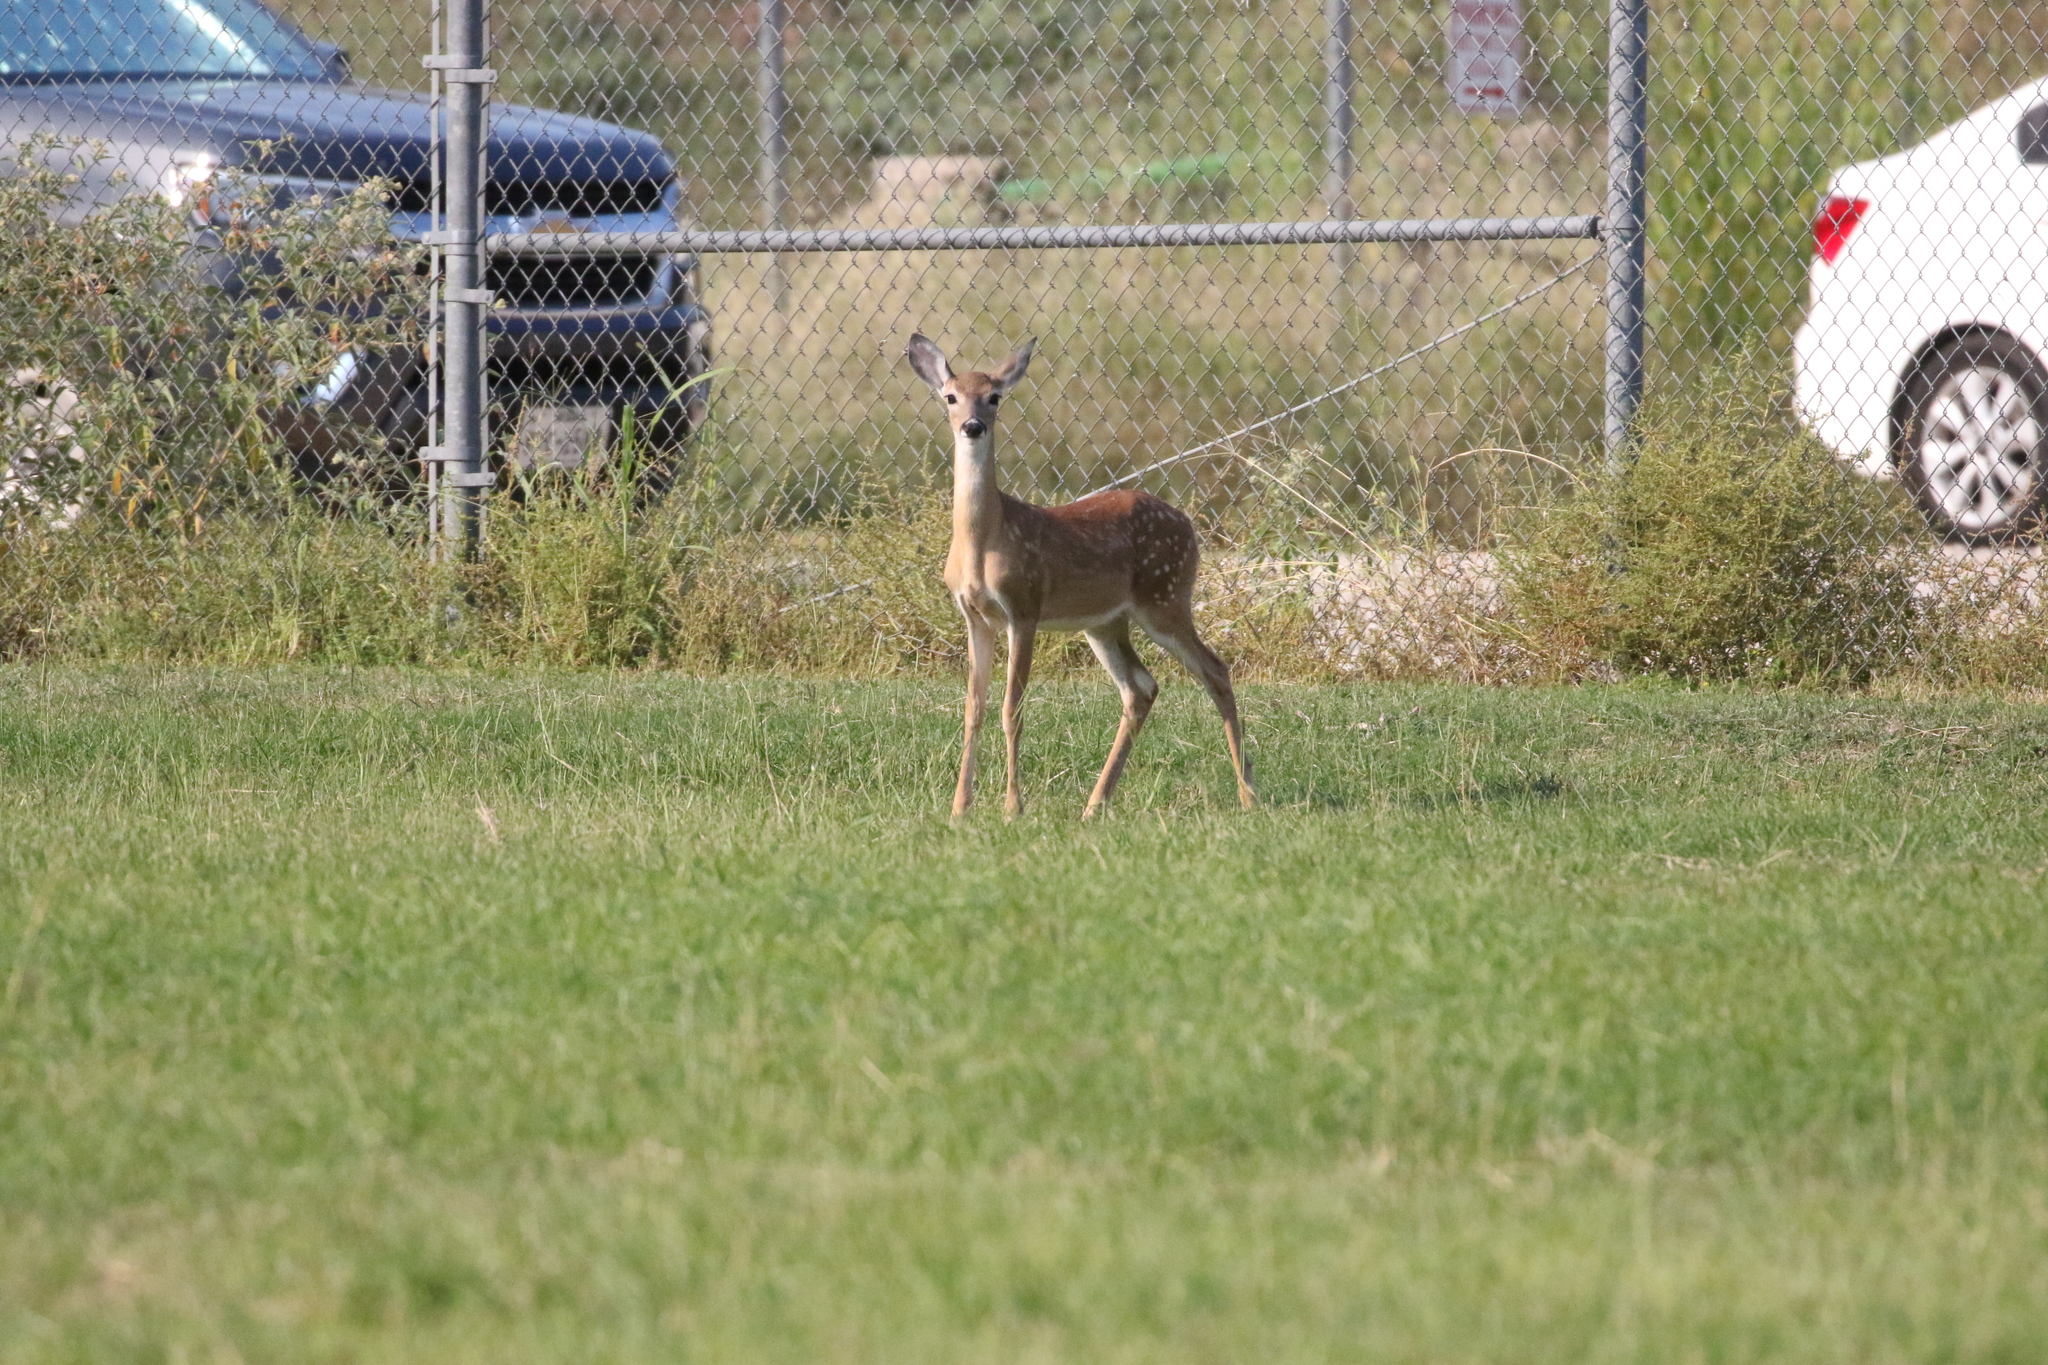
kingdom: Animalia
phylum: Chordata
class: Mammalia
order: Artiodactyla
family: Cervidae
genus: Odocoileus
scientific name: Odocoileus virginianus
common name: White-tailed deer
